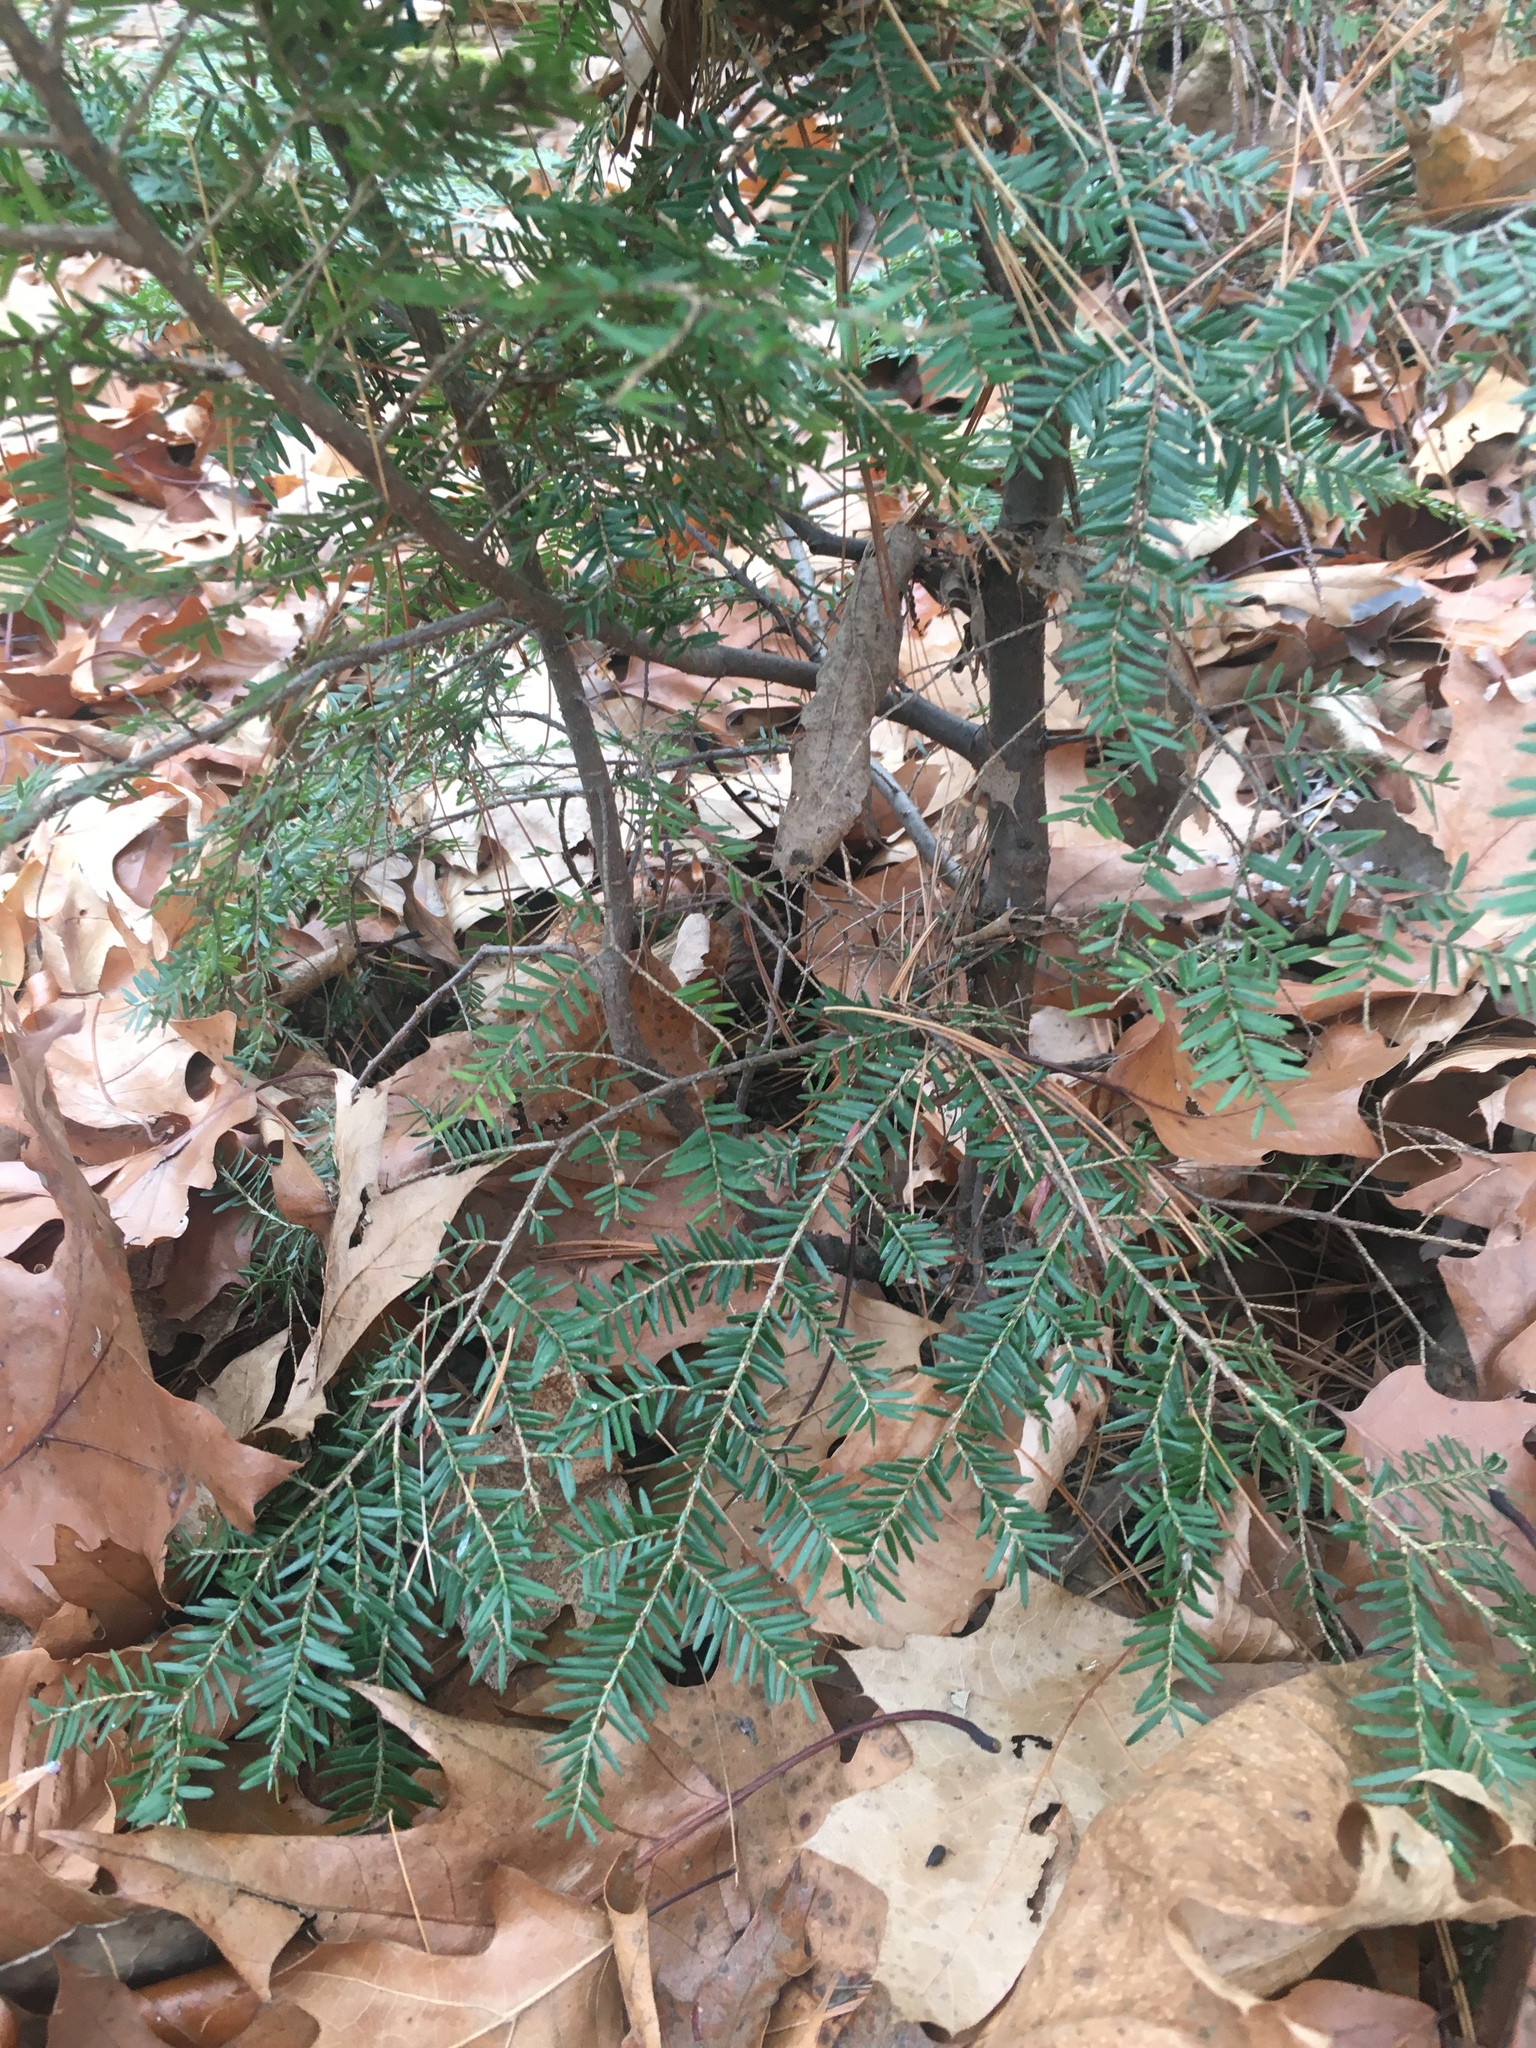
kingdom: Plantae
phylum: Tracheophyta
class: Pinopsida
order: Pinales
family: Pinaceae
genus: Tsuga
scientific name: Tsuga canadensis
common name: Eastern hemlock
